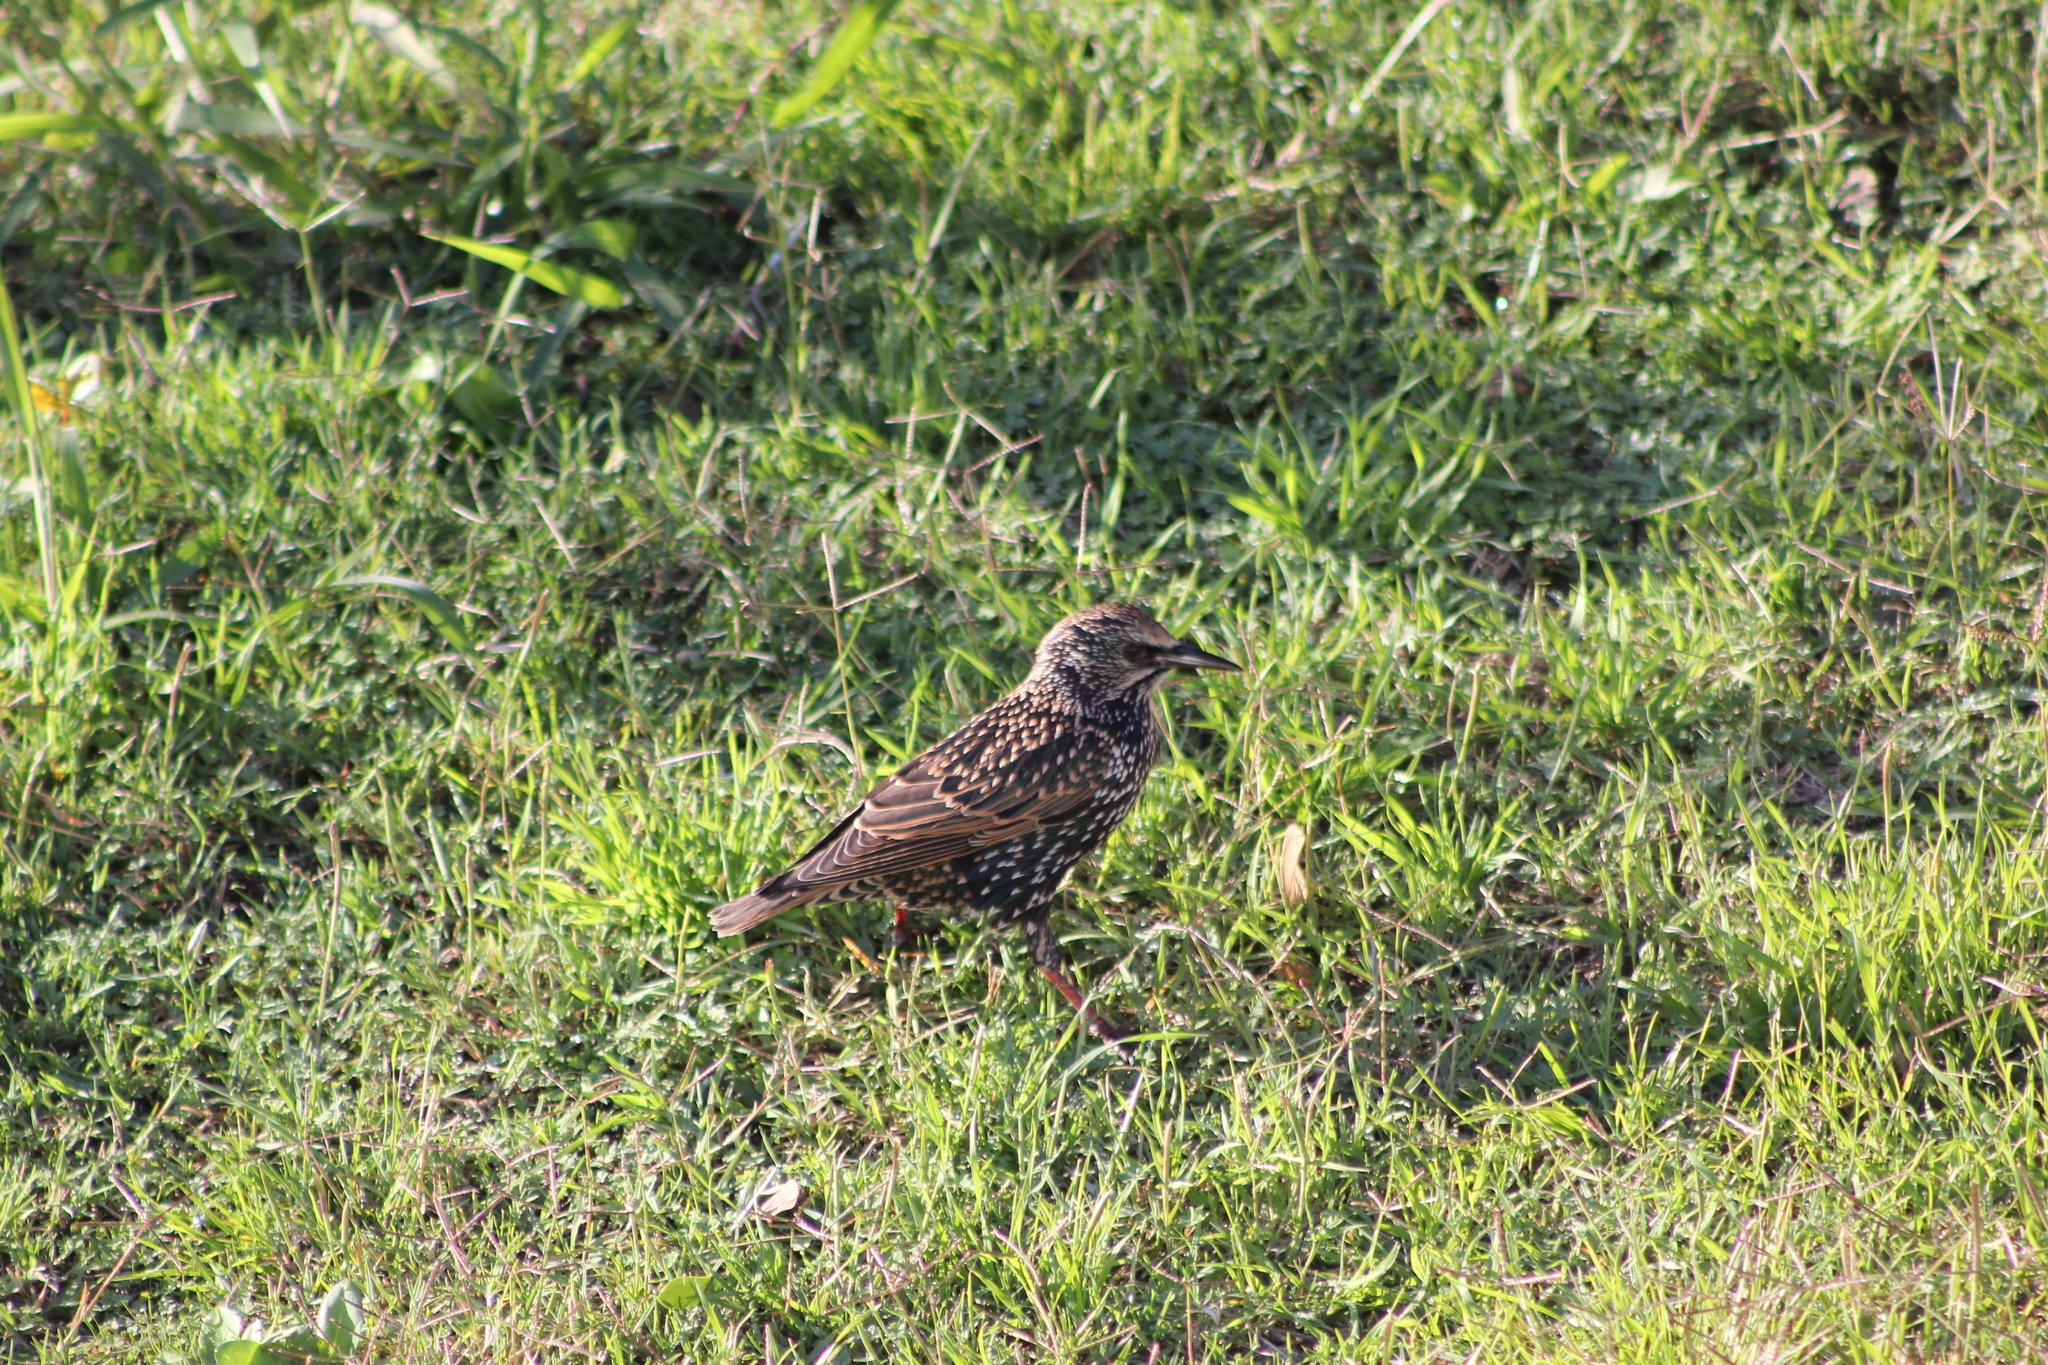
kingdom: Animalia
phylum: Chordata
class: Aves
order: Passeriformes
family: Sturnidae
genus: Sturnus
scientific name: Sturnus vulgaris
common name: Common starling
